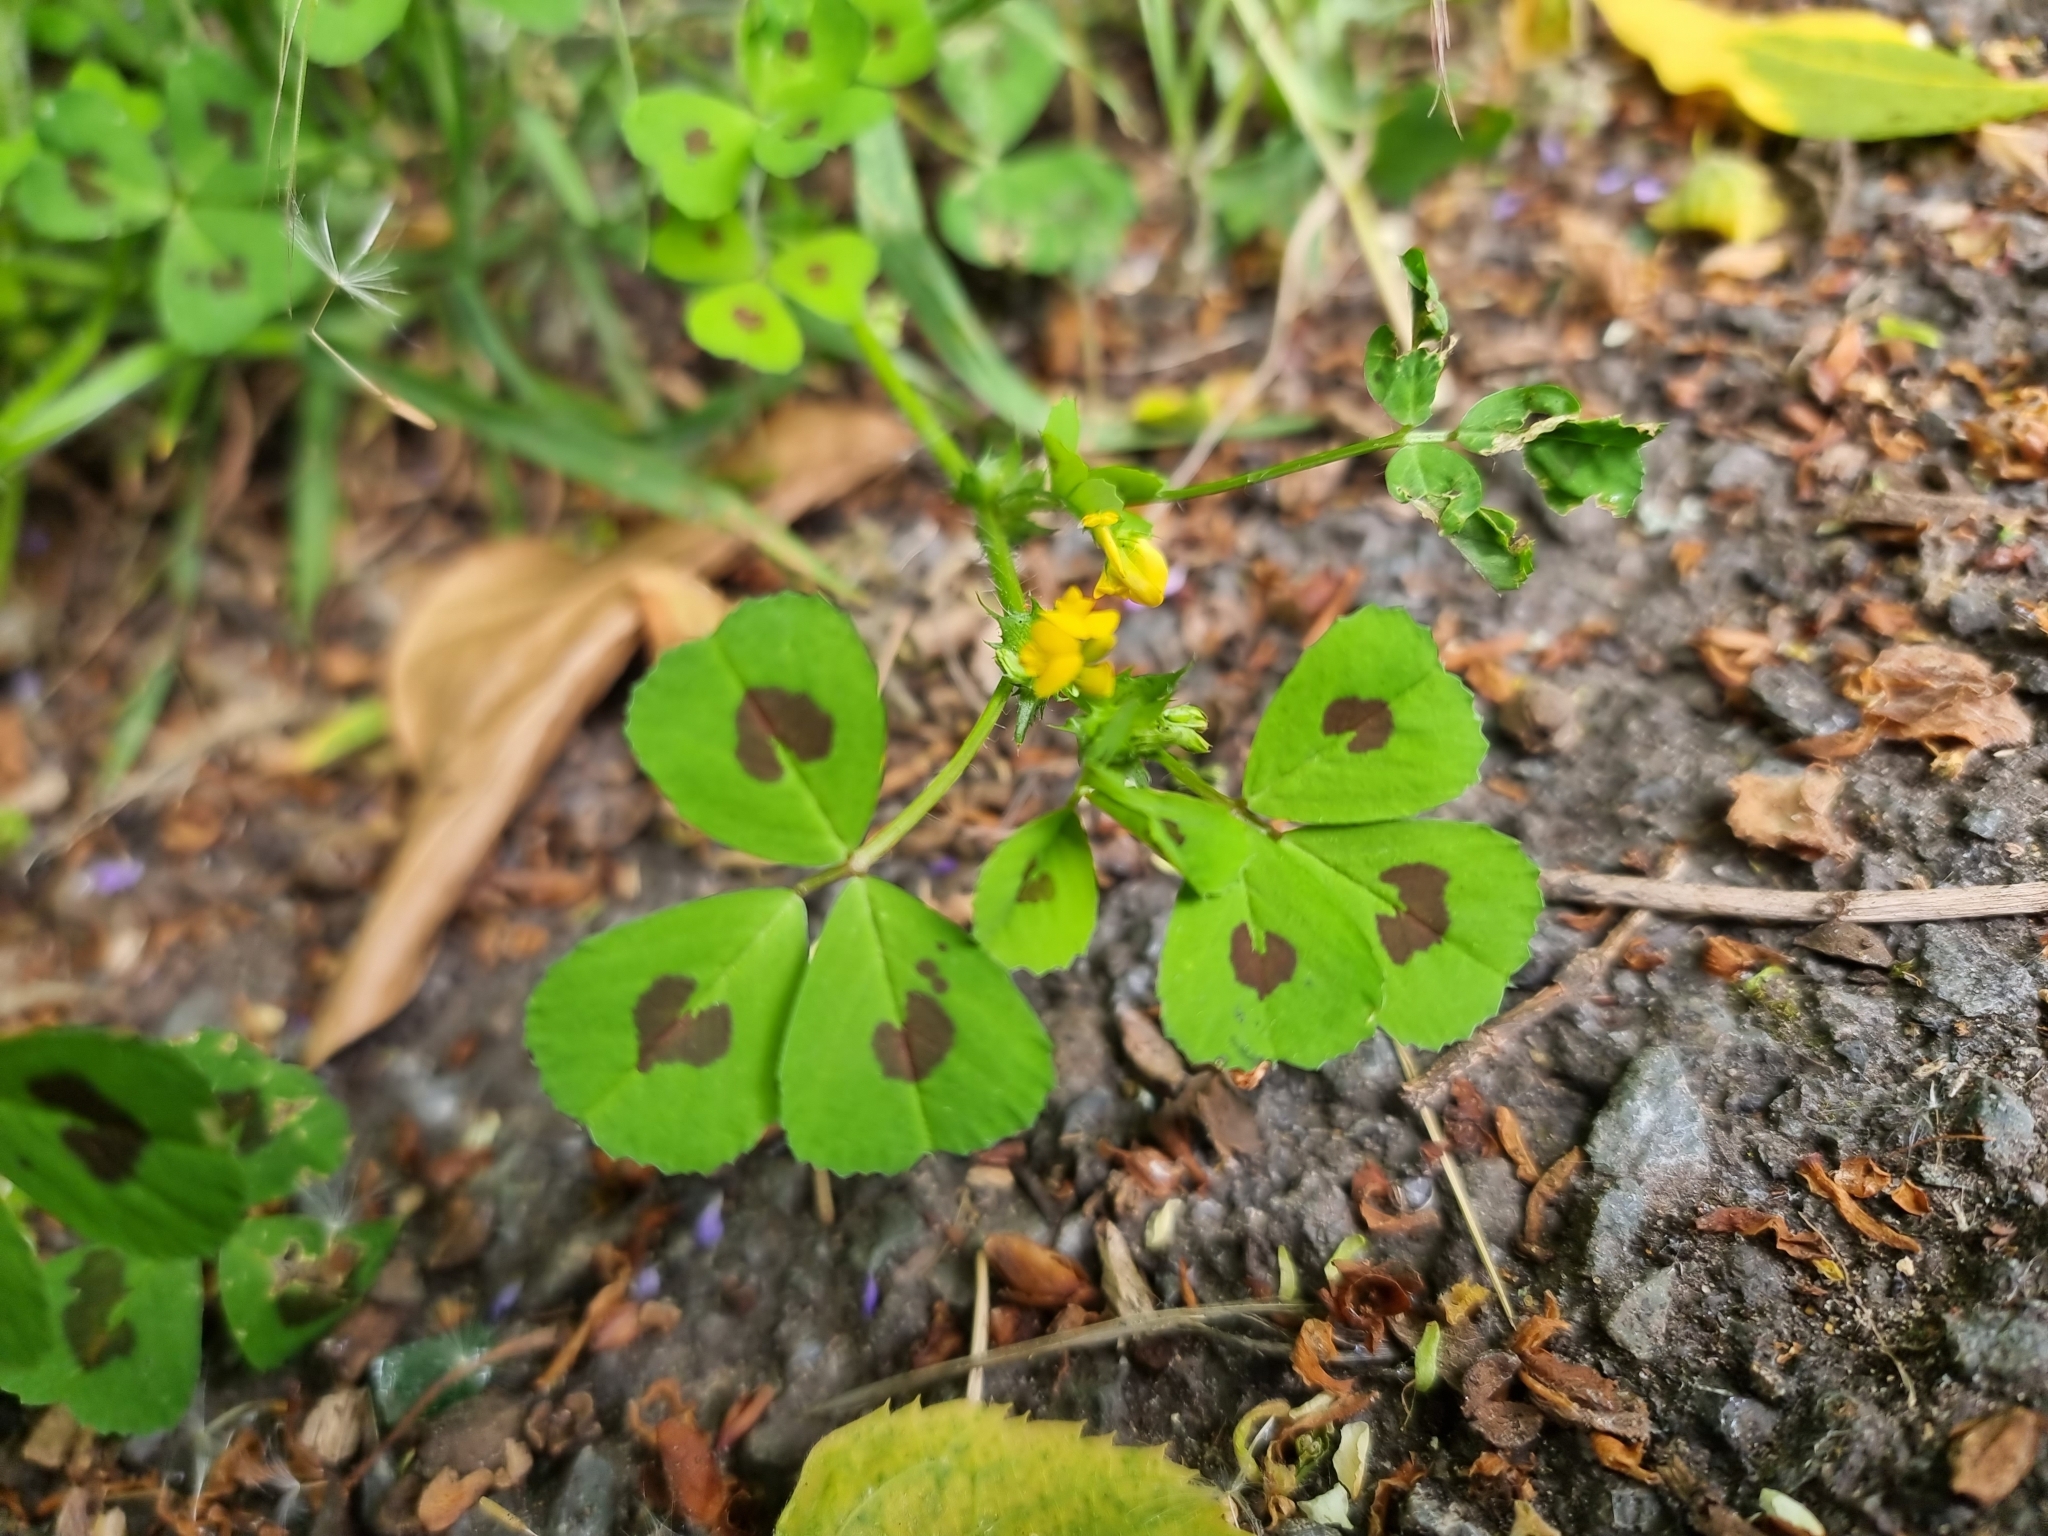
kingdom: Plantae
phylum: Tracheophyta
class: Magnoliopsida
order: Fabales
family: Fabaceae
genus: Medicago
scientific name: Medicago arabica
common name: Spotted medick
